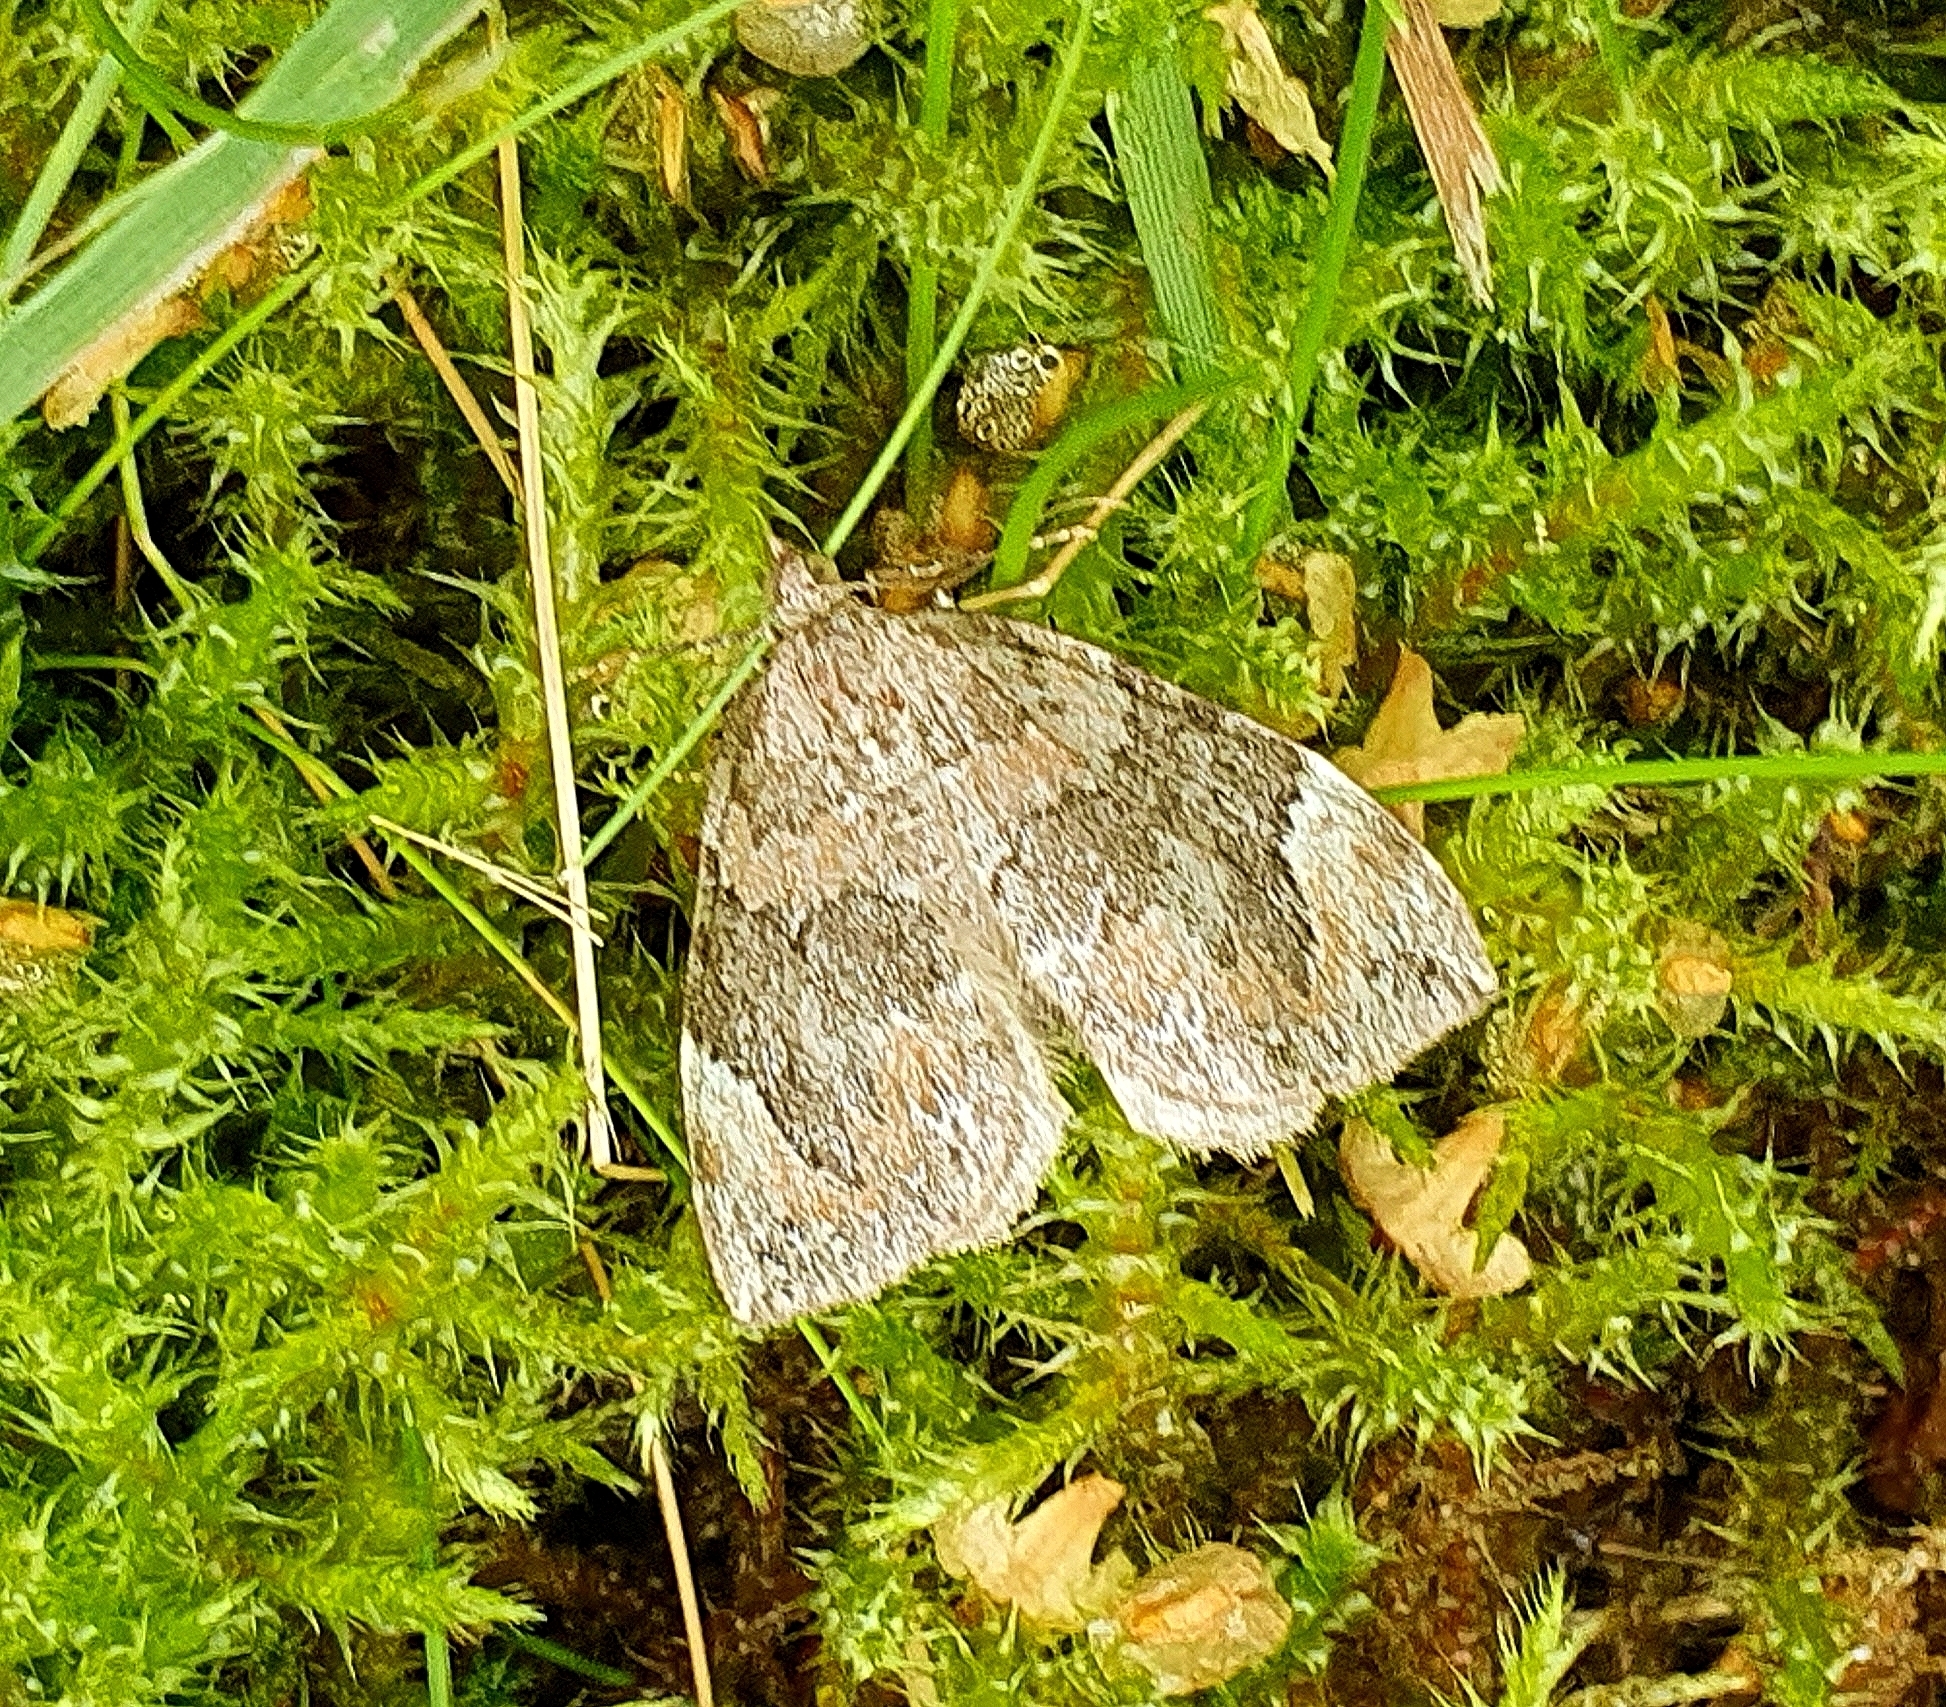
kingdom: Animalia
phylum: Arthropoda
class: Insecta
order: Lepidoptera
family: Geometridae
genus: Dysstroma
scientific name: Dysstroma citrata
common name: Dark marbled carpet
